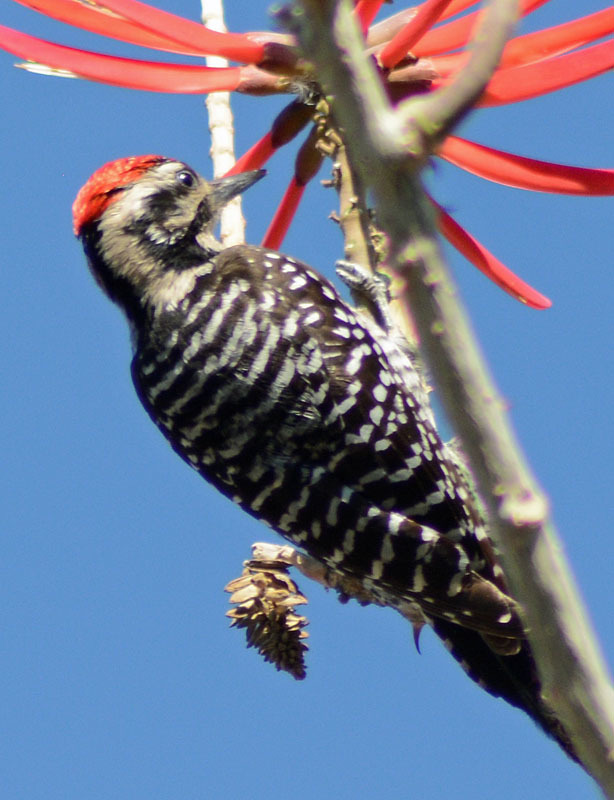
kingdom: Animalia
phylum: Chordata
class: Aves
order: Piciformes
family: Picidae
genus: Dryobates
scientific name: Dryobates scalaris
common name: Ladder-backed woodpecker
